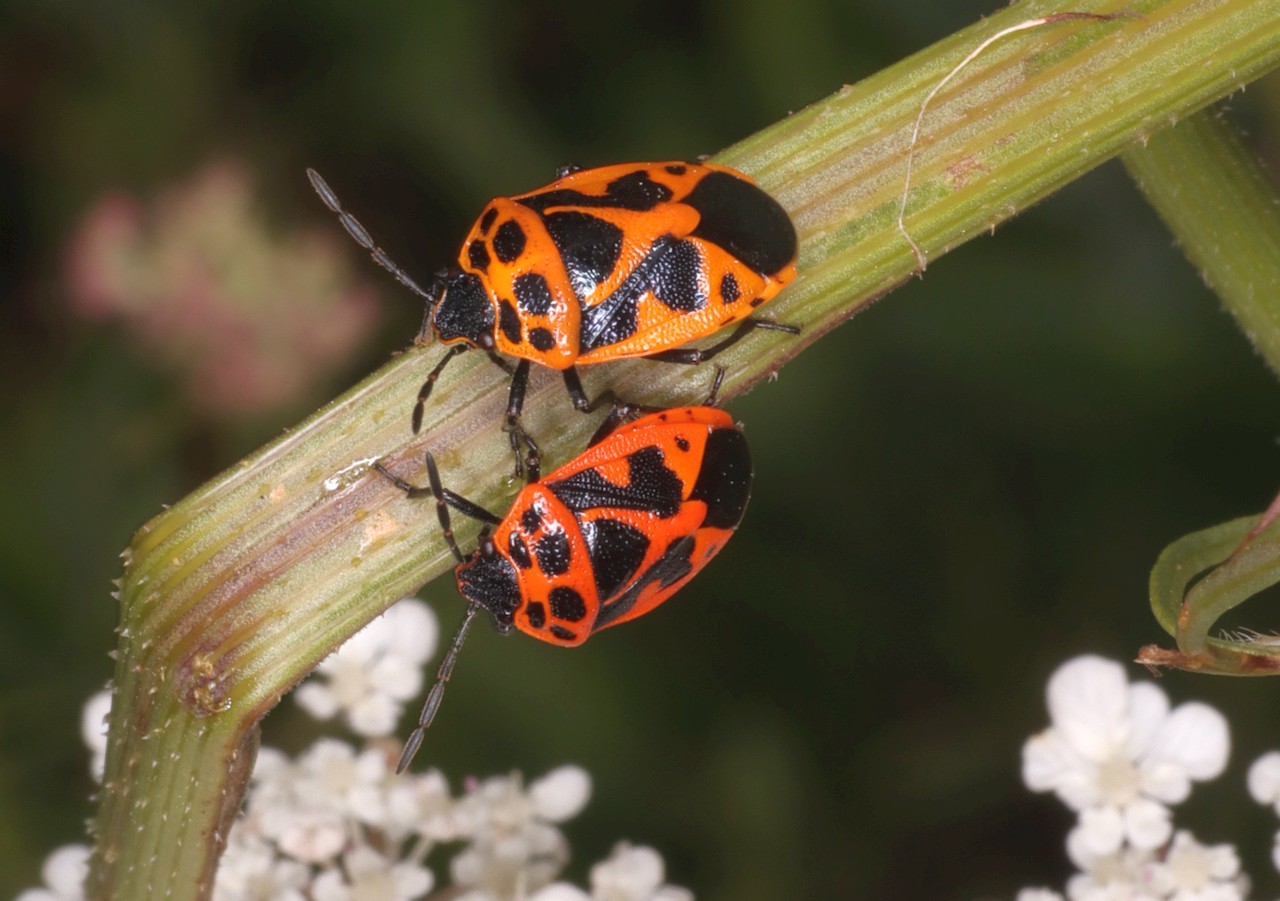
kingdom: Animalia
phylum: Arthropoda
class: Insecta
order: Hemiptera
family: Pentatomidae
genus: Eurydema
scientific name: Eurydema dominulus
